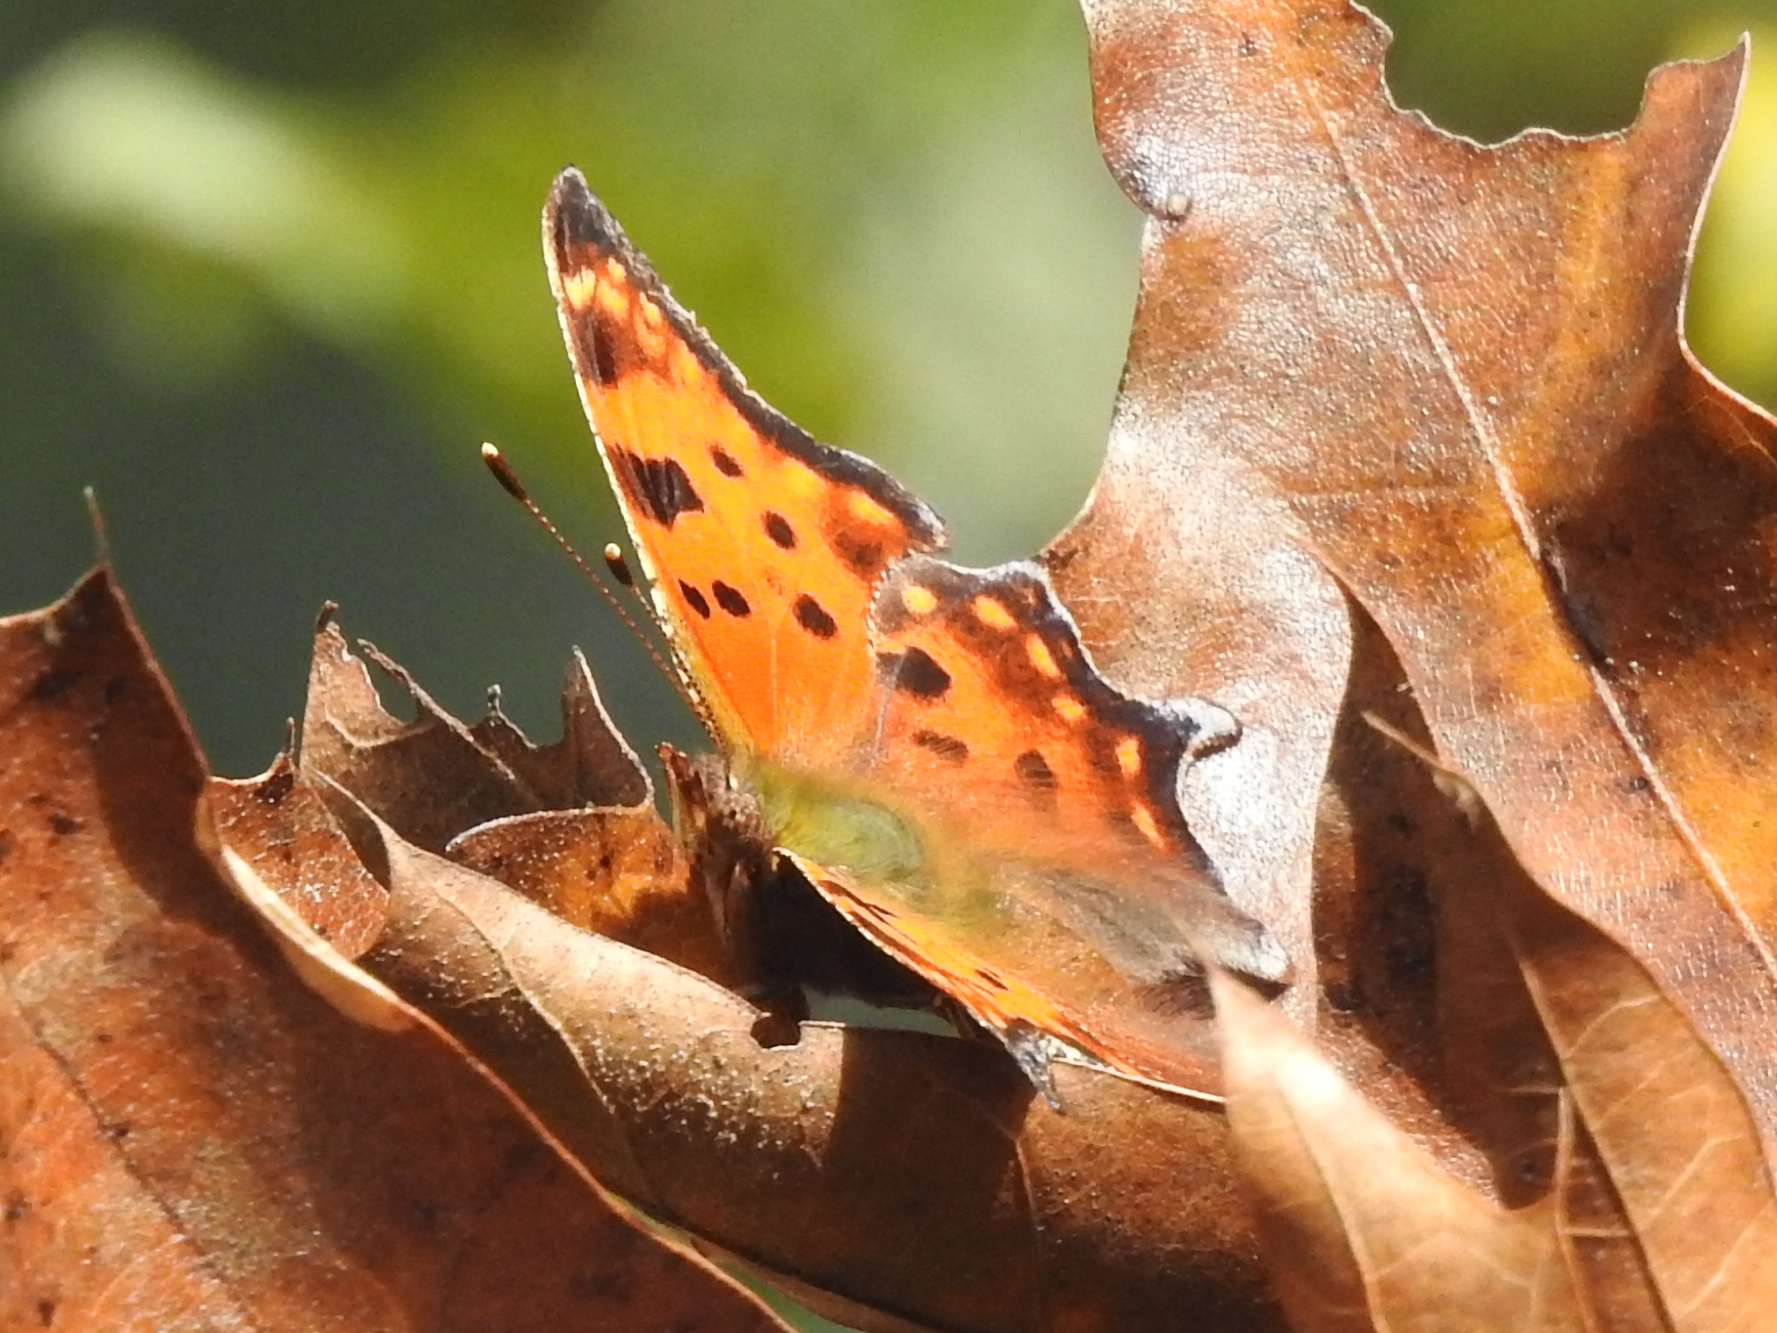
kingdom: Animalia
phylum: Arthropoda
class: Insecta
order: Lepidoptera
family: Nymphalidae
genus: Polygonia
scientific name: Polygonia comma
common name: Eastern comma
